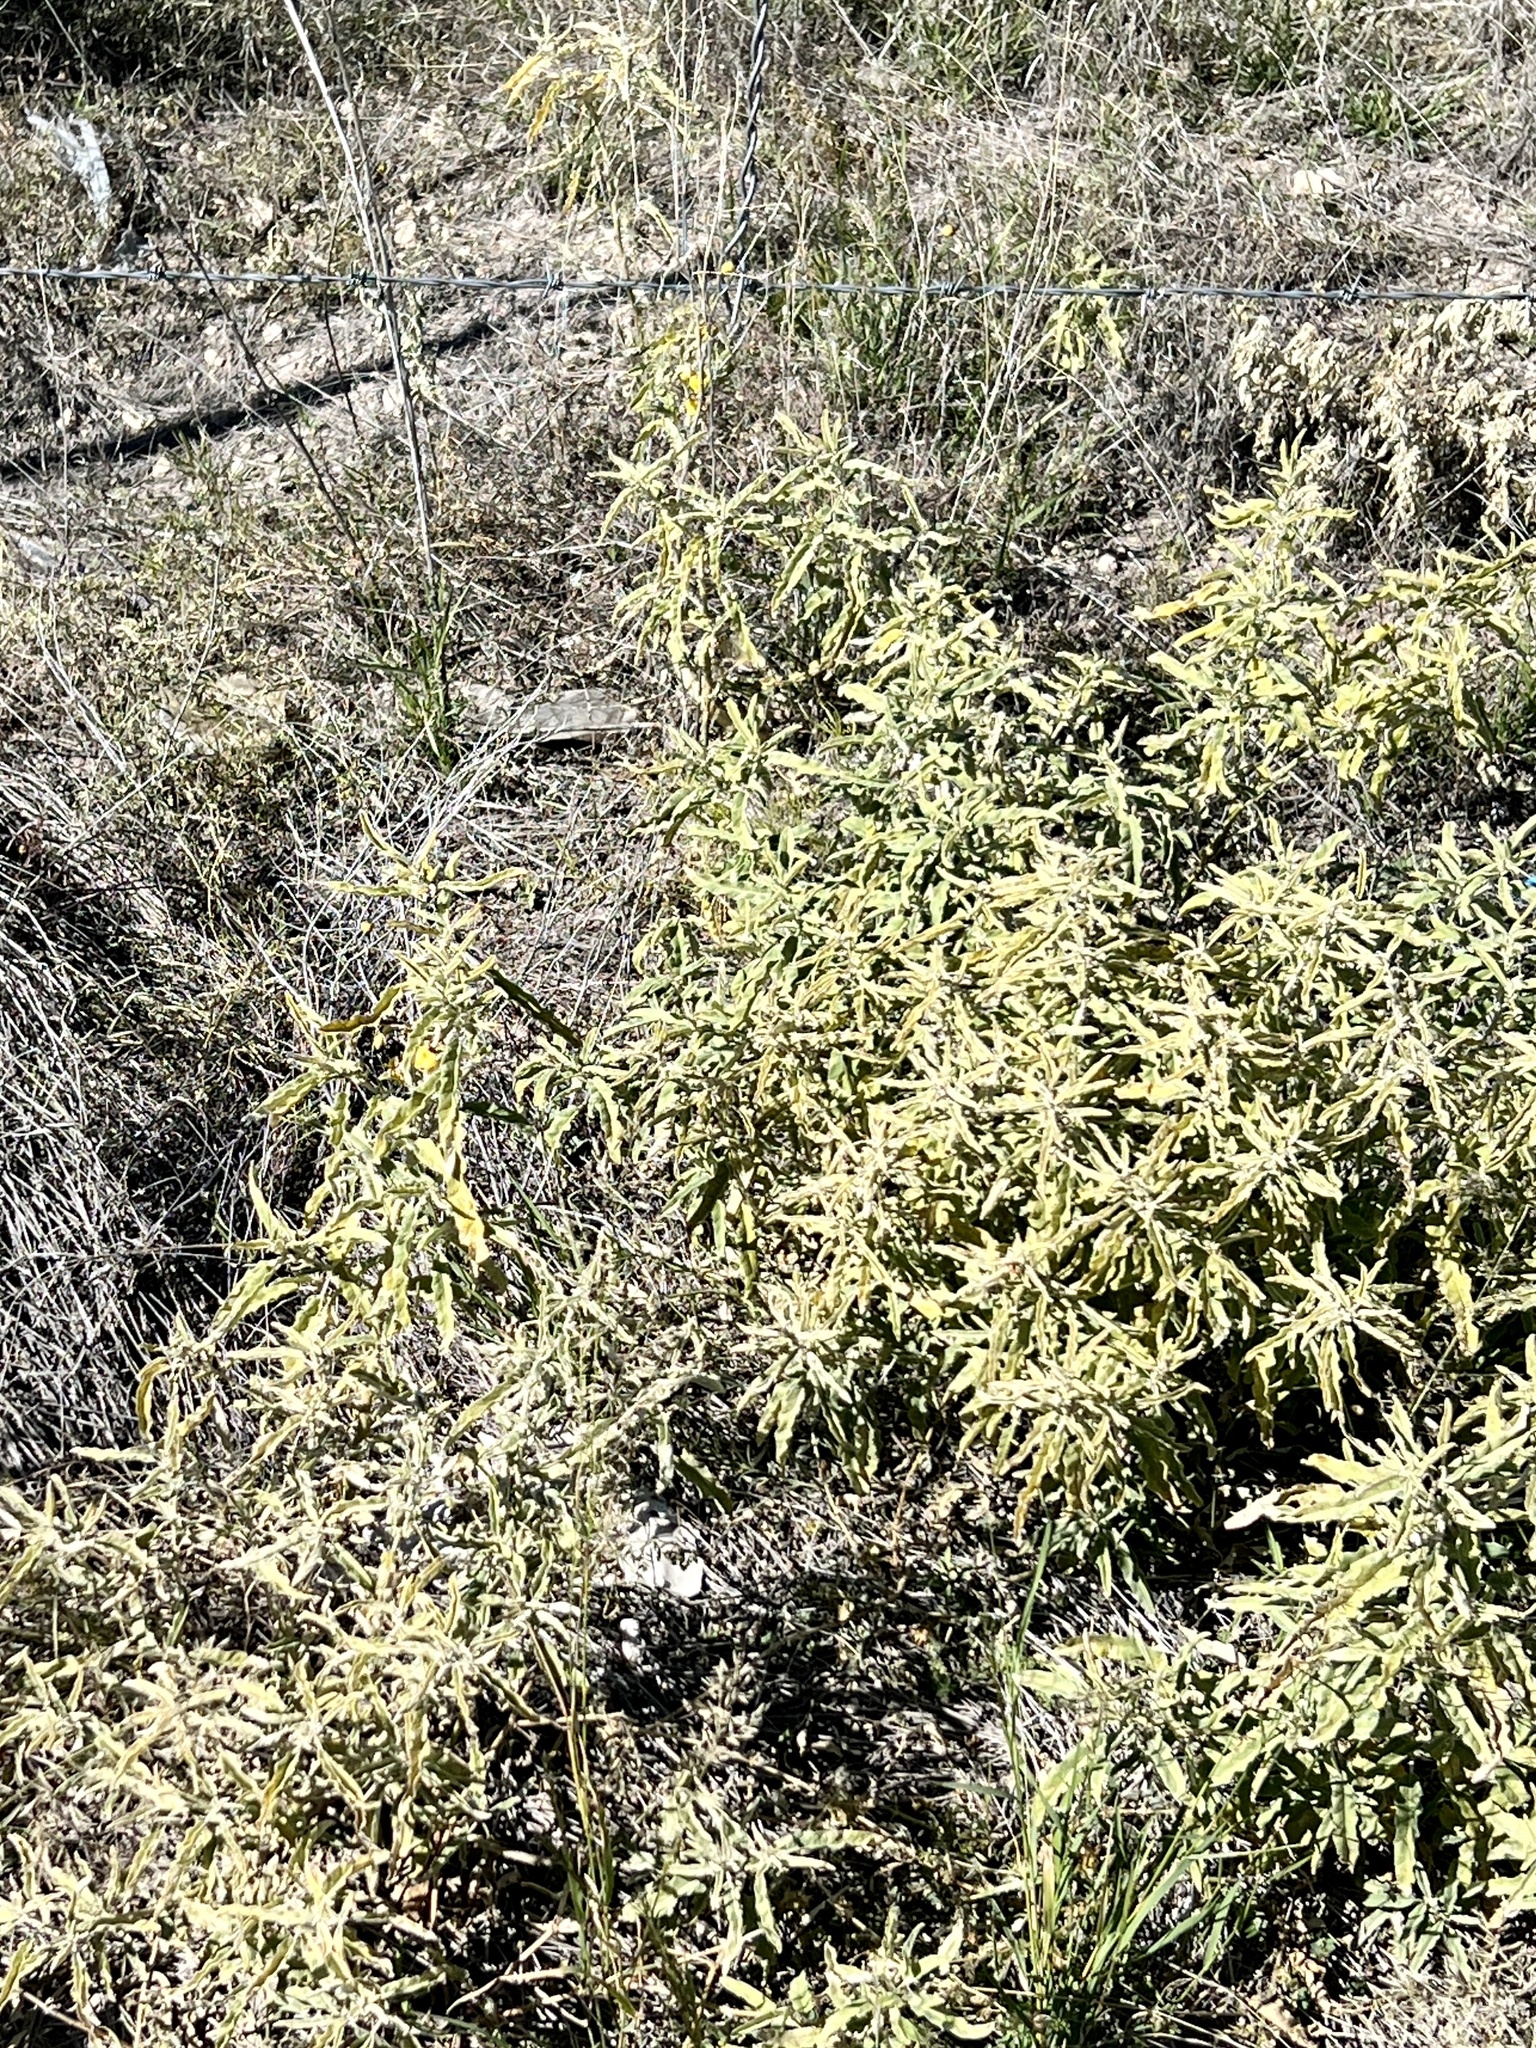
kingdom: Plantae
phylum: Tracheophyta
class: Magnoliopsida
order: Solanales
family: Solanaceae
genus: Solanum
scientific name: Solanum elaeagnifolium
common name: Silverleaf nightshade
